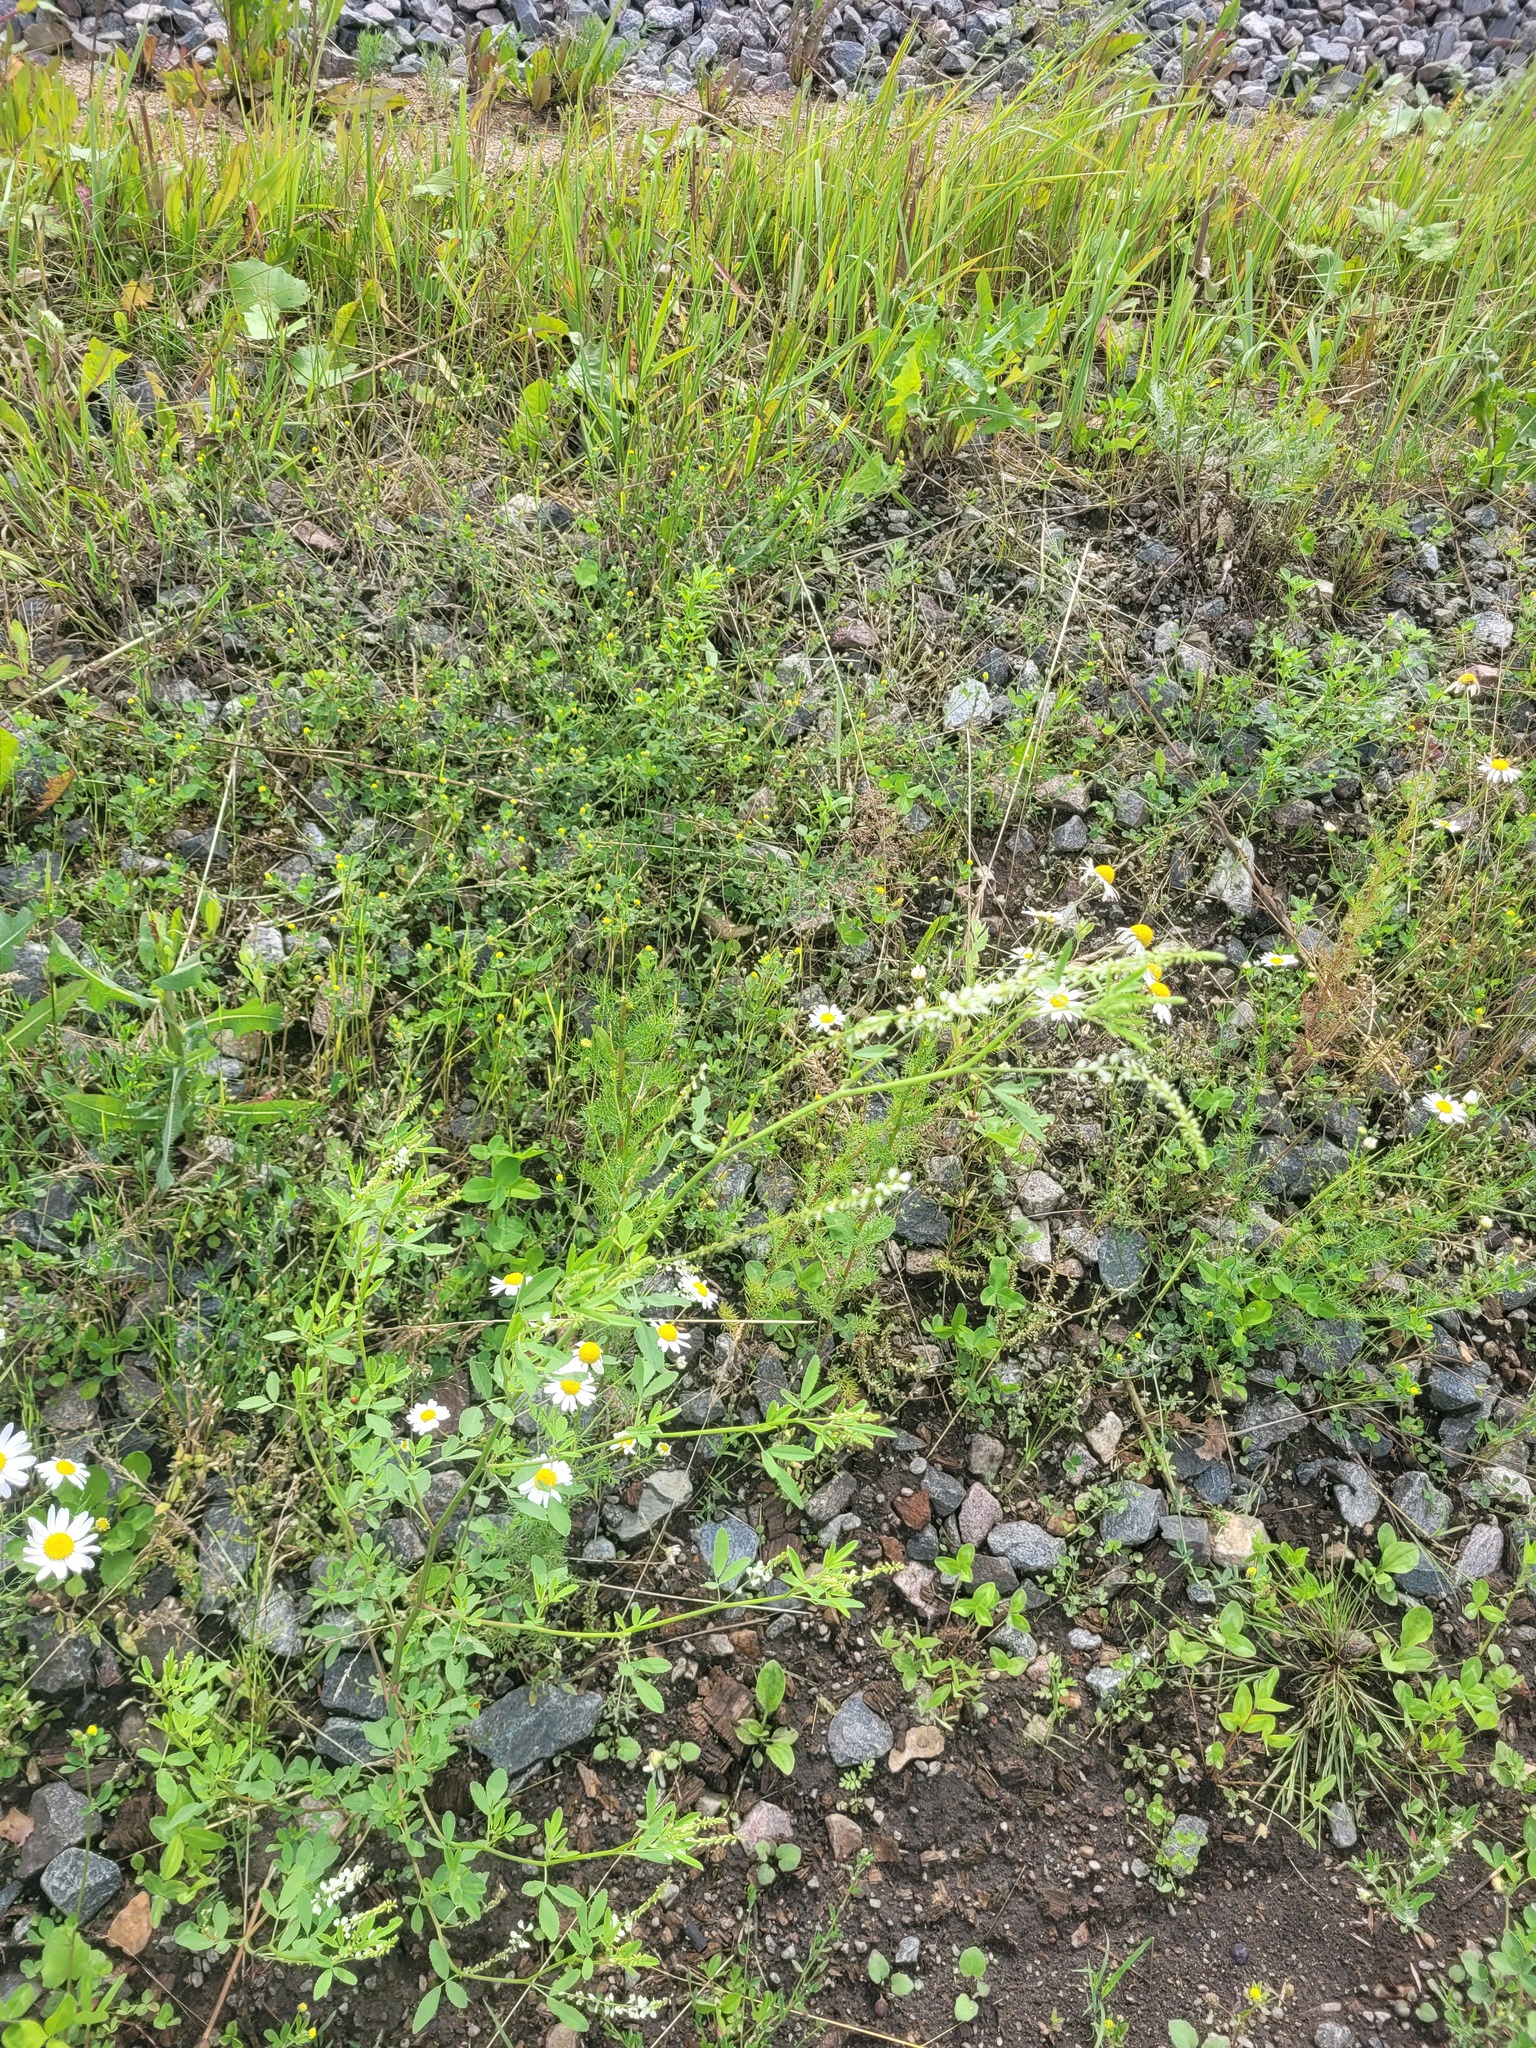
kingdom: Plantae
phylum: Tracheophyta
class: Magnoliopsida
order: Asterales
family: Asteraceae
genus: Tripleurospermum
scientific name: Tripleurospermum inodorum
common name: Scentless mayweed
